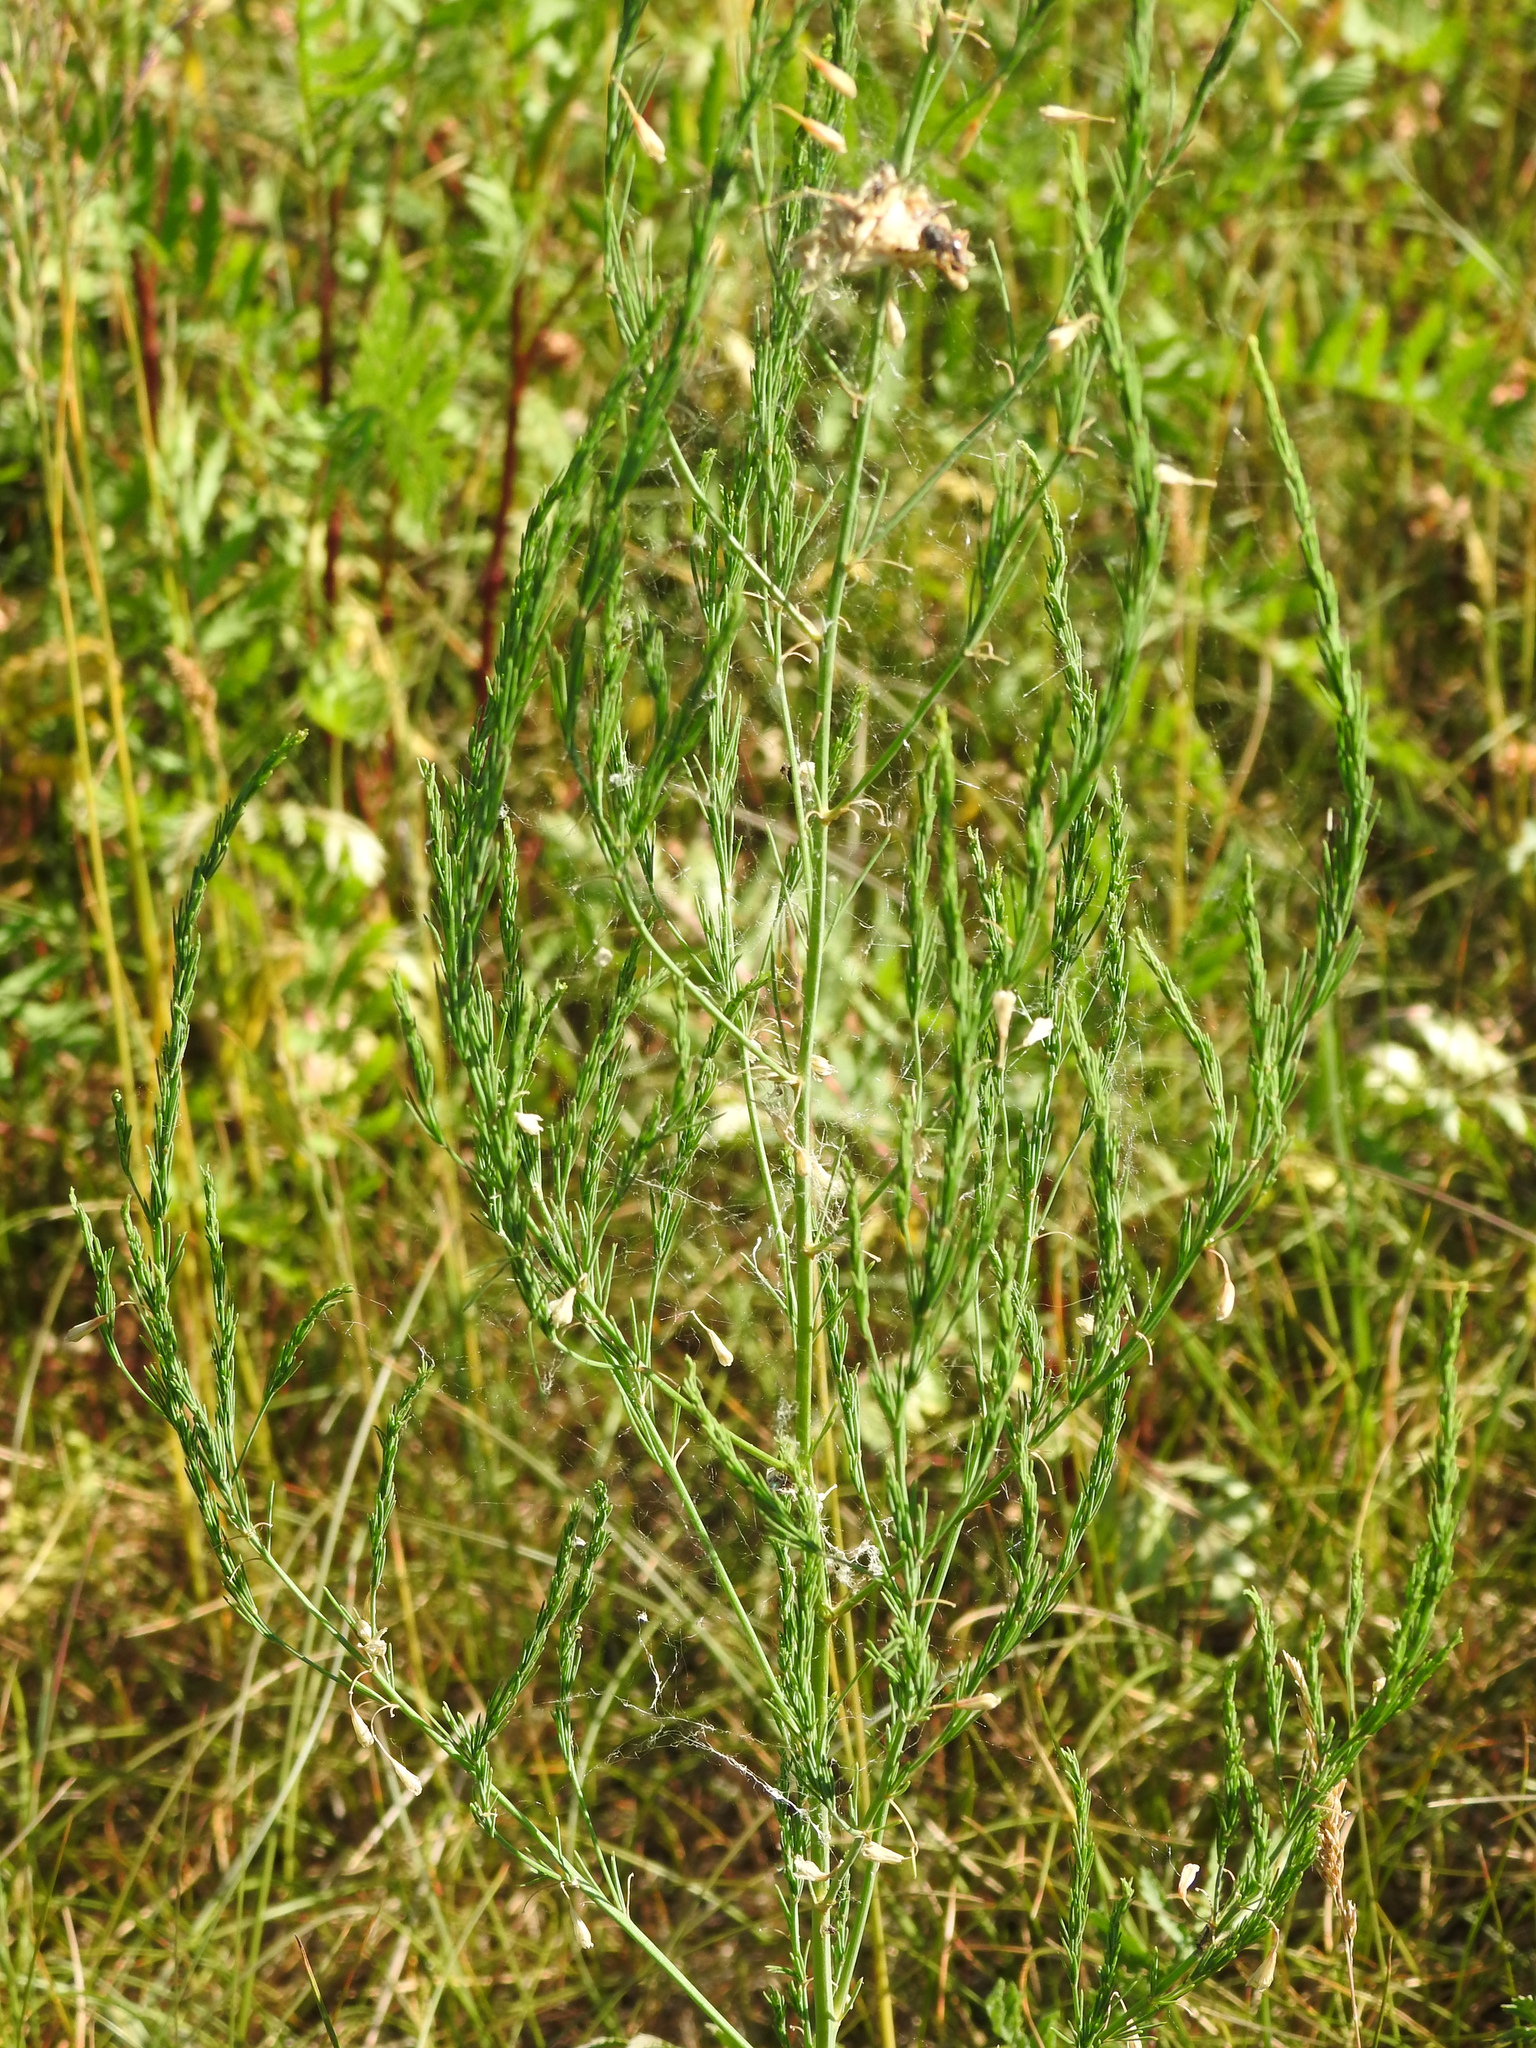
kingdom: Plantae
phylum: Tracheophyta
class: Liliopsida
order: Asparagales
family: Asparagaceae
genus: Asparagus
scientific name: Asparagus officinalis
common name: Garden asparagus
